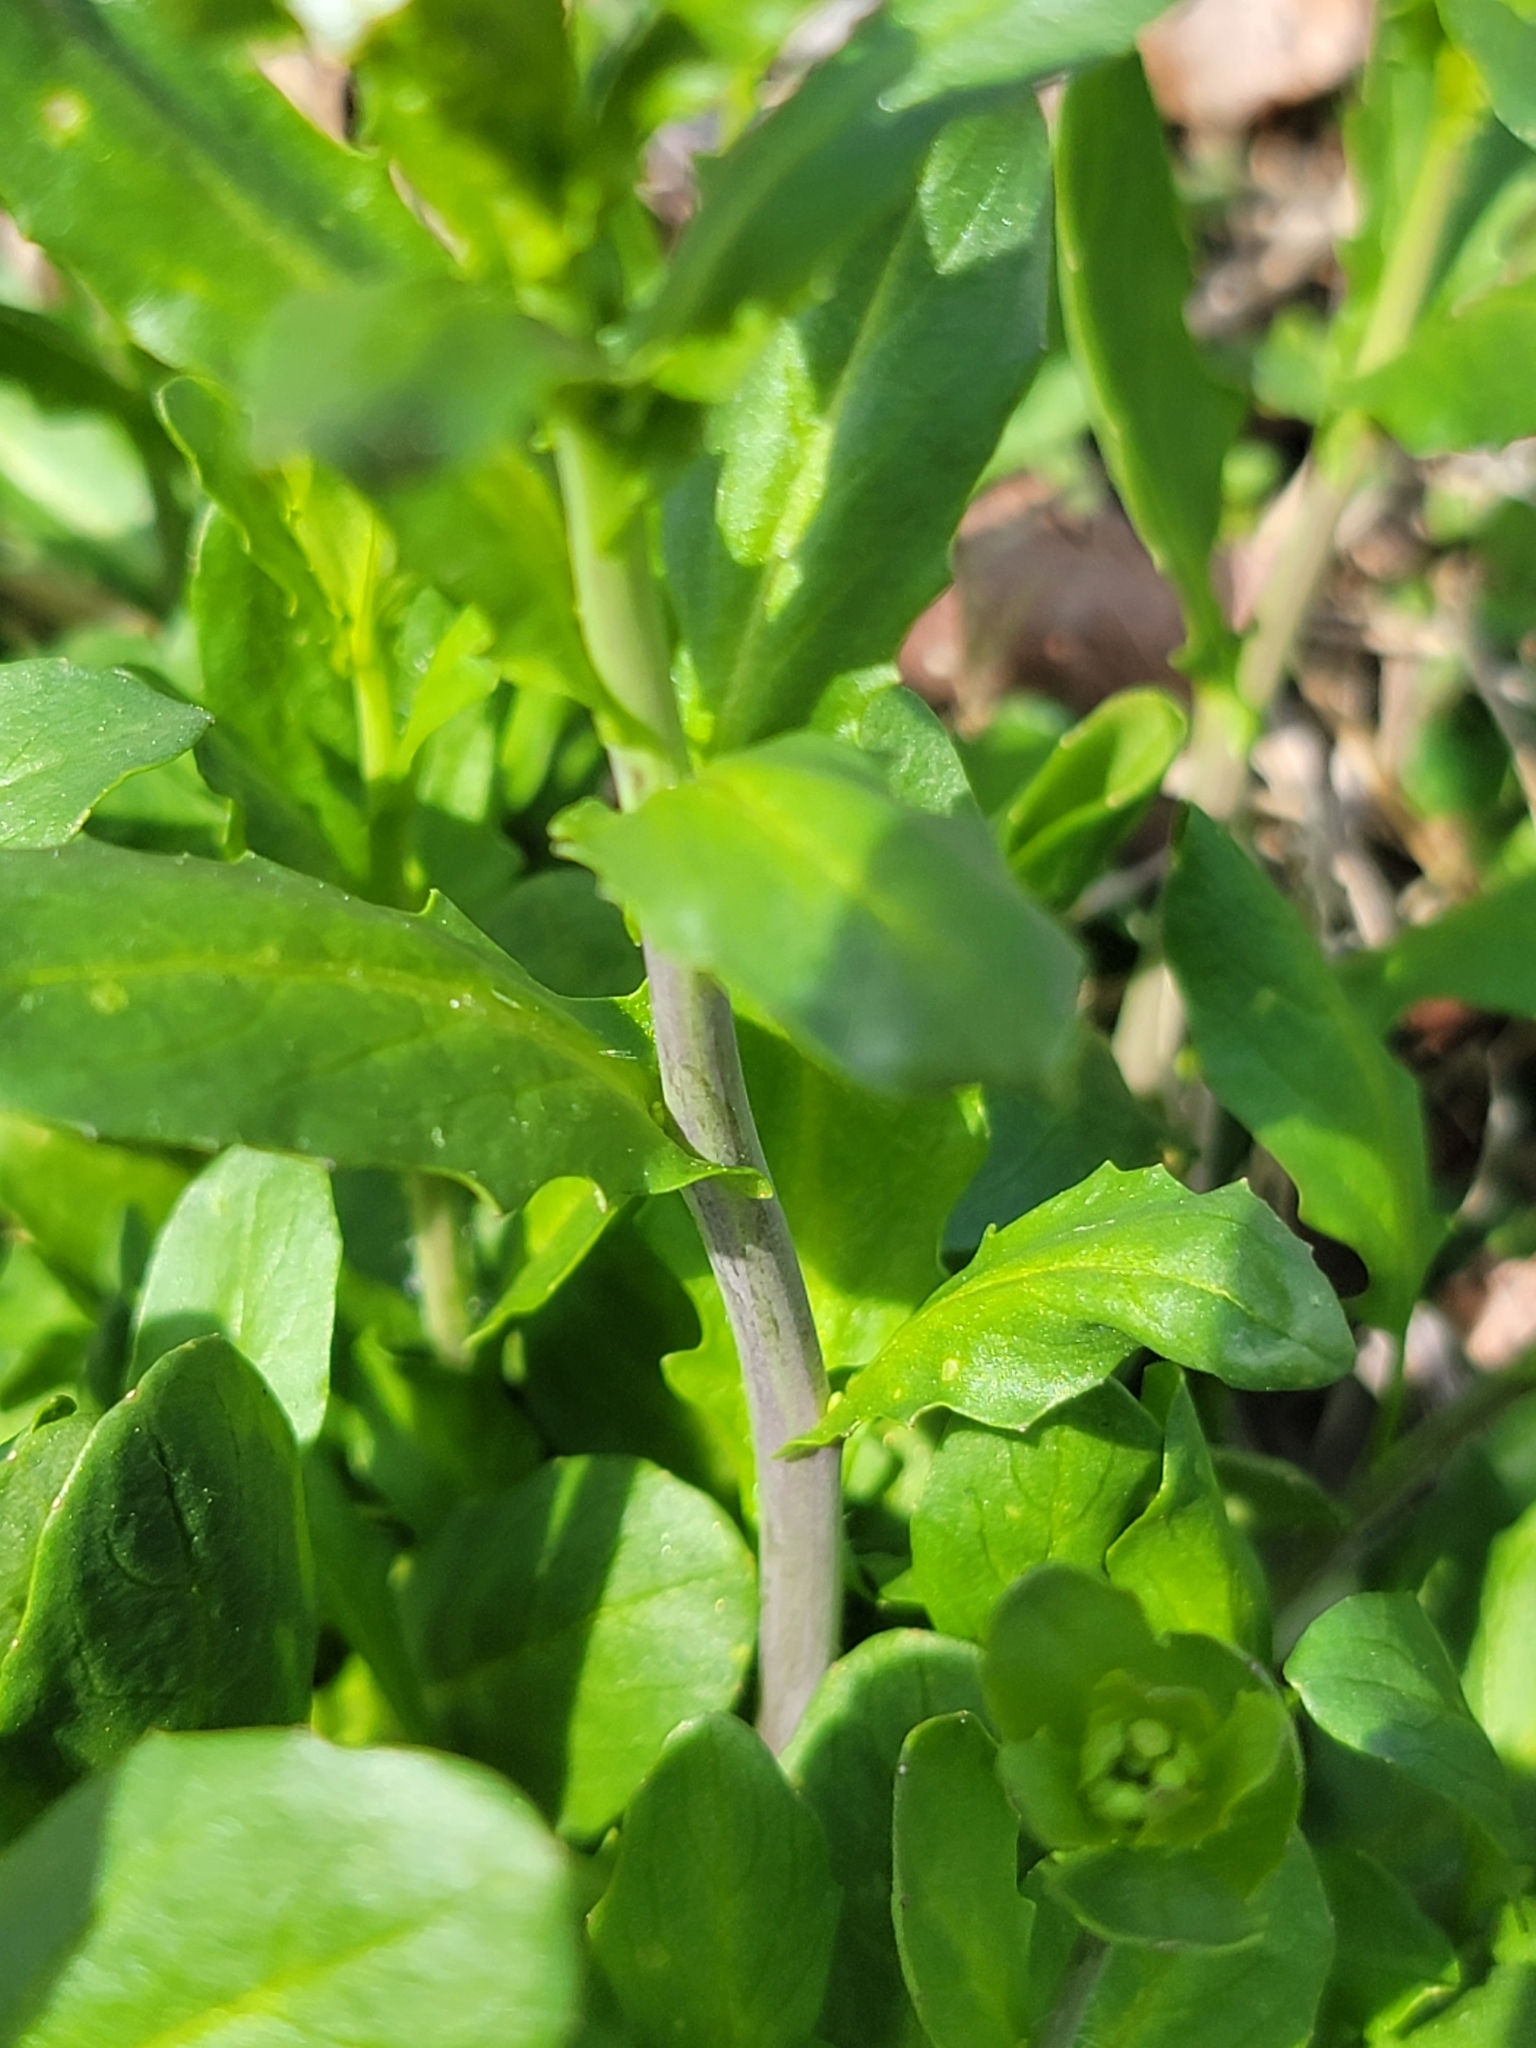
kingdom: Plantae
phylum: Tracheophyta
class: Magnoliopsida
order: Brassicales
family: Brassicaceae
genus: Mummenhoffia
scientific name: Mummenhoffia alliacea
